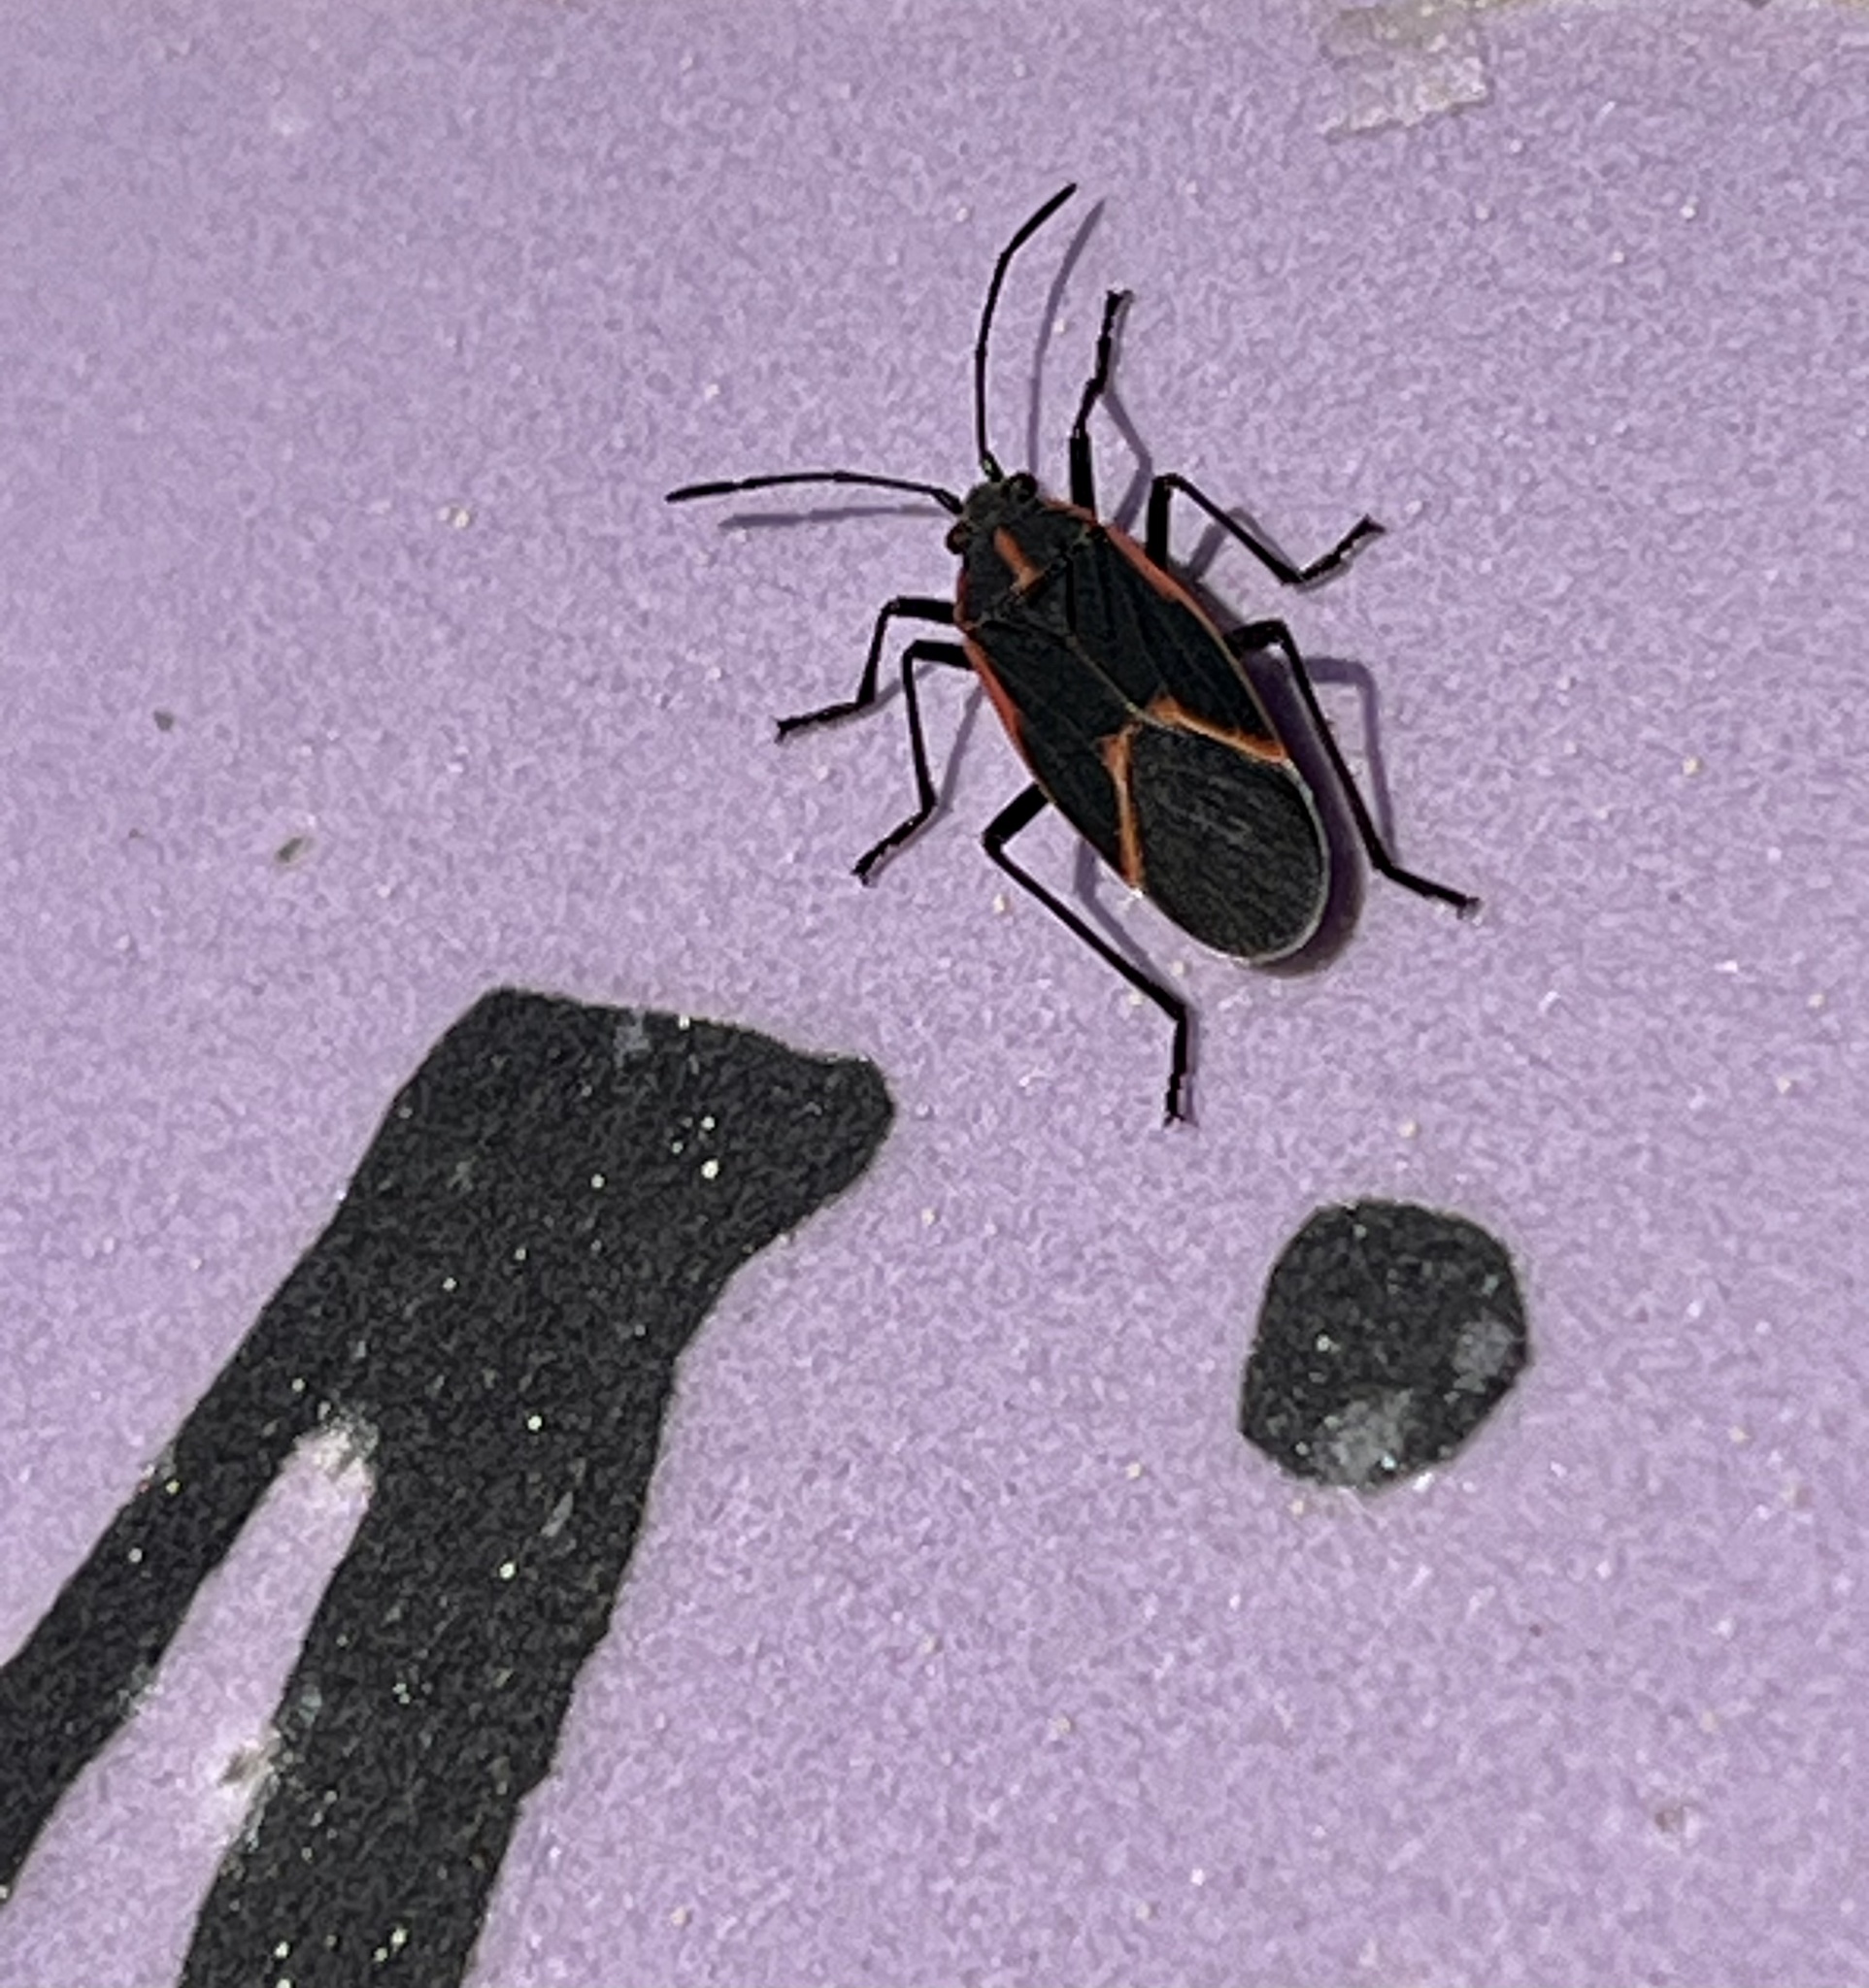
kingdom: Animalia
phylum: Arthropoda
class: Insecta
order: Hemiptera
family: Rhopalidae
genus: Boisea
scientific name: Boisea trivittata
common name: Boxelder bug
